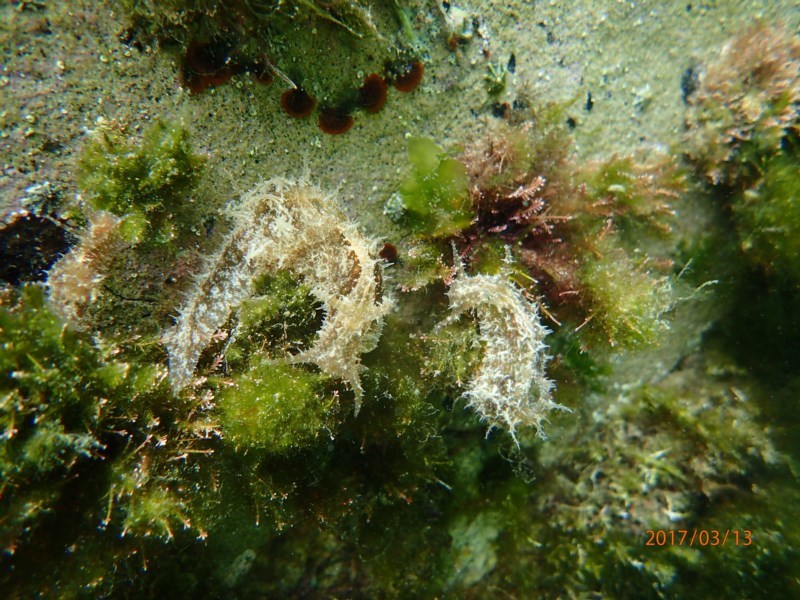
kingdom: Animalia
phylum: Mollusca
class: Gastropoda
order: Aplysiida
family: Aplysiidae
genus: Stylocheilus
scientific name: Stylocheilus striatus
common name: Striated seahare
